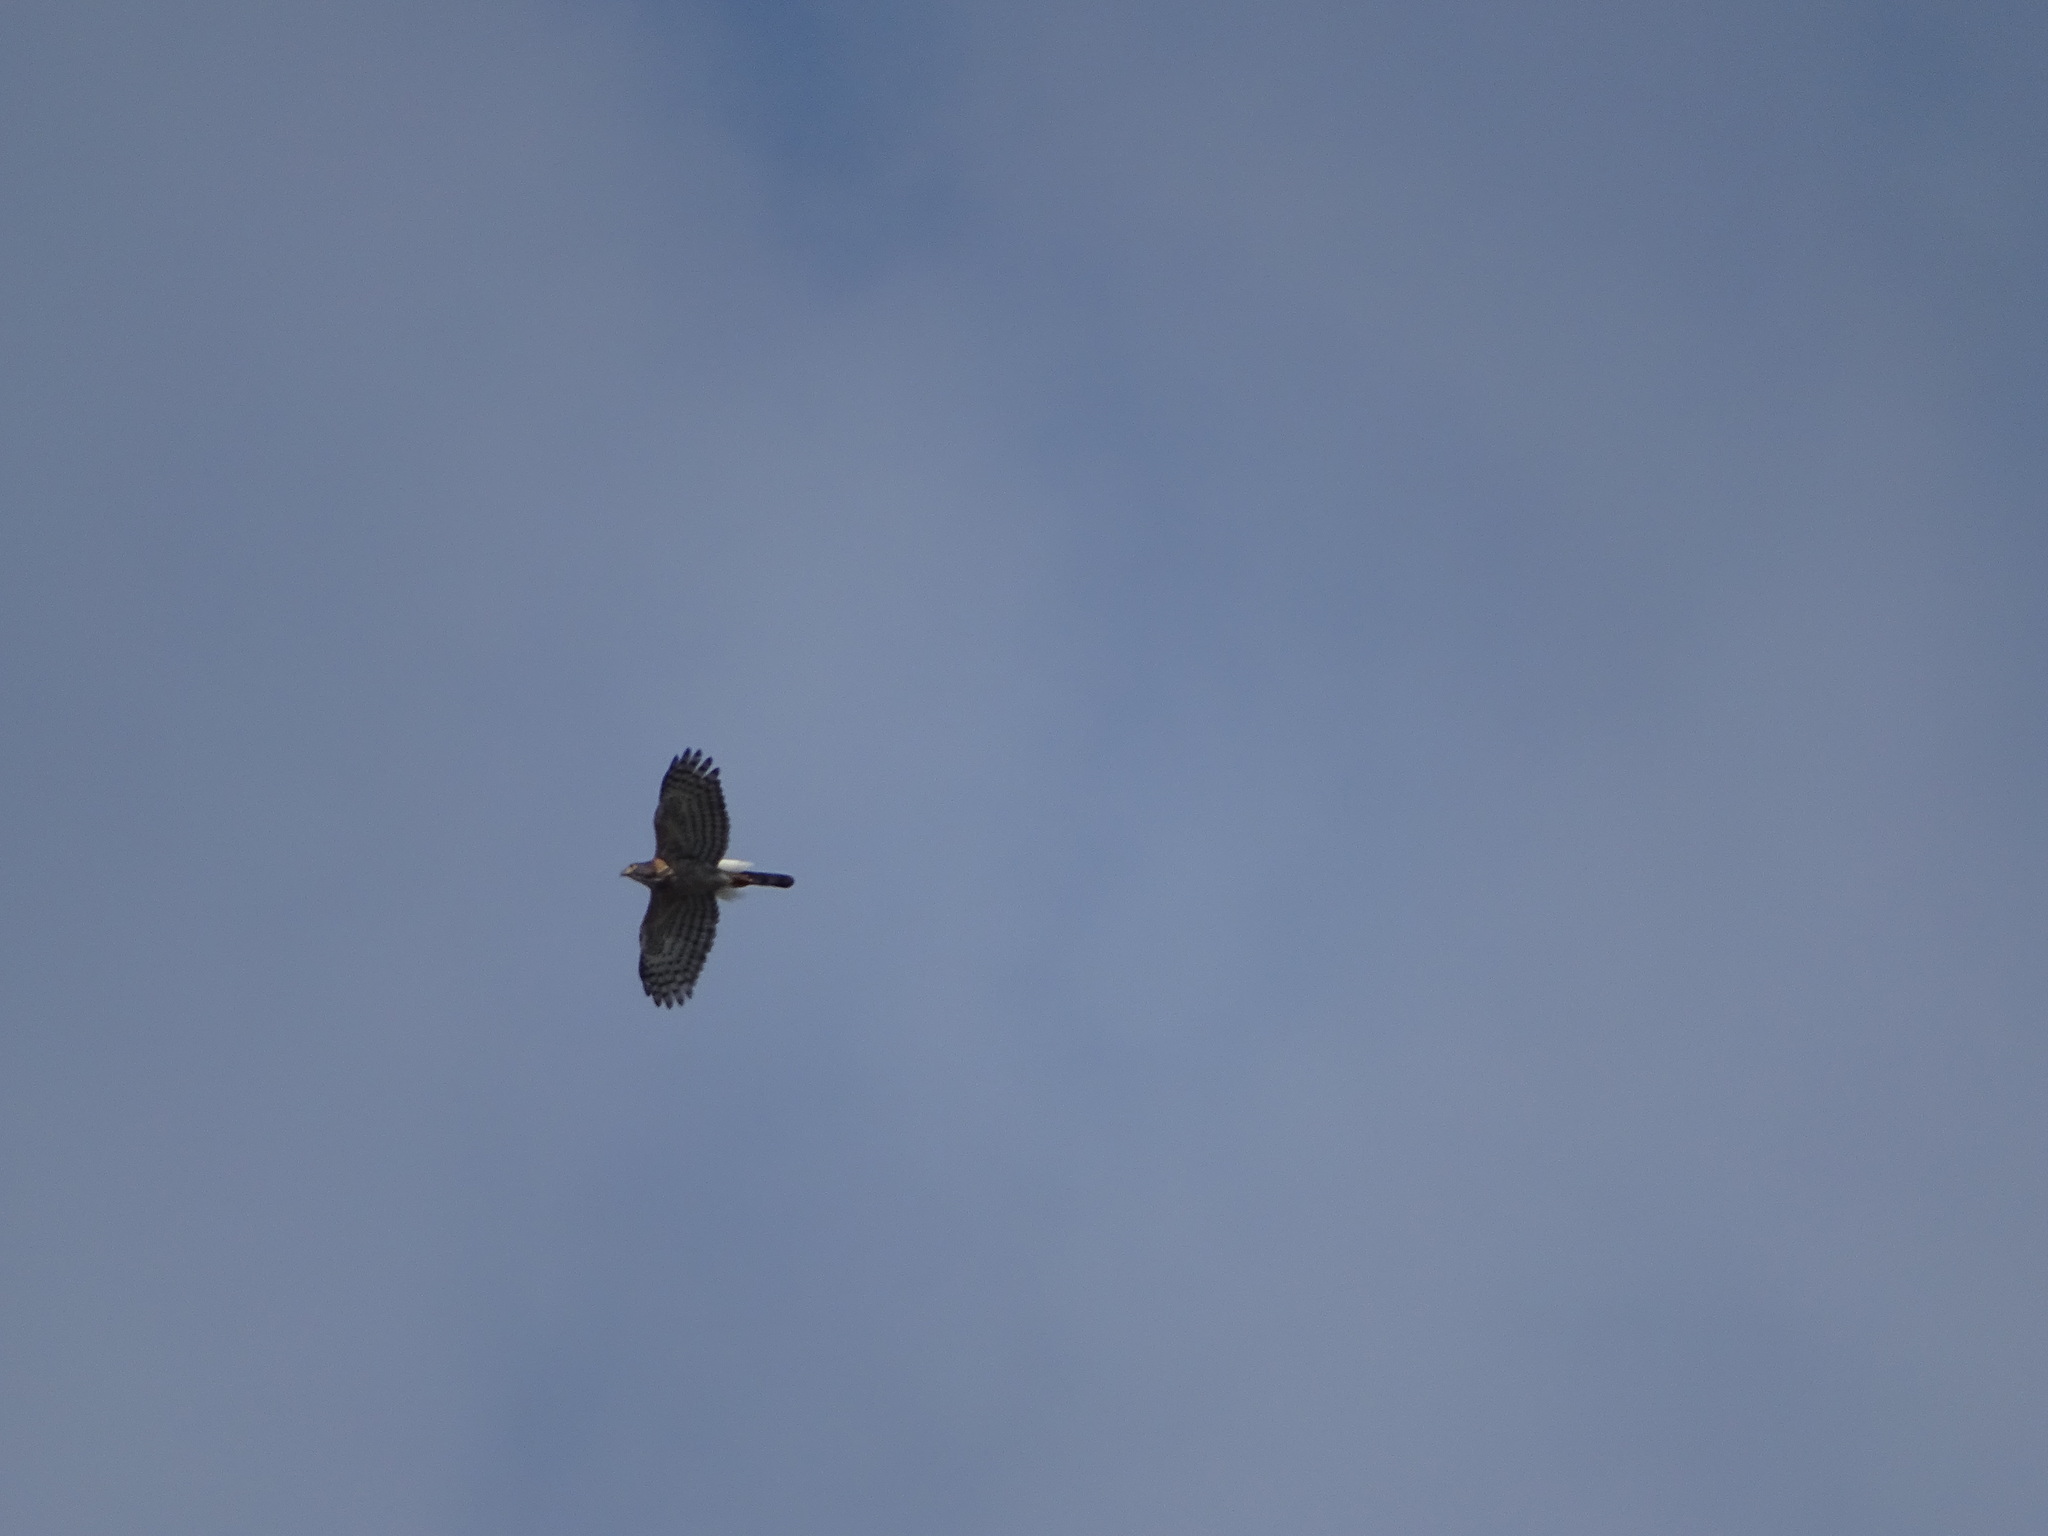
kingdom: Animalia
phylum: Chordata
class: Aves
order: Accipitriformes
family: Accipitridae
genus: Accipiter
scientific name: Accipiter trivirgatus
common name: Crested goshawk
